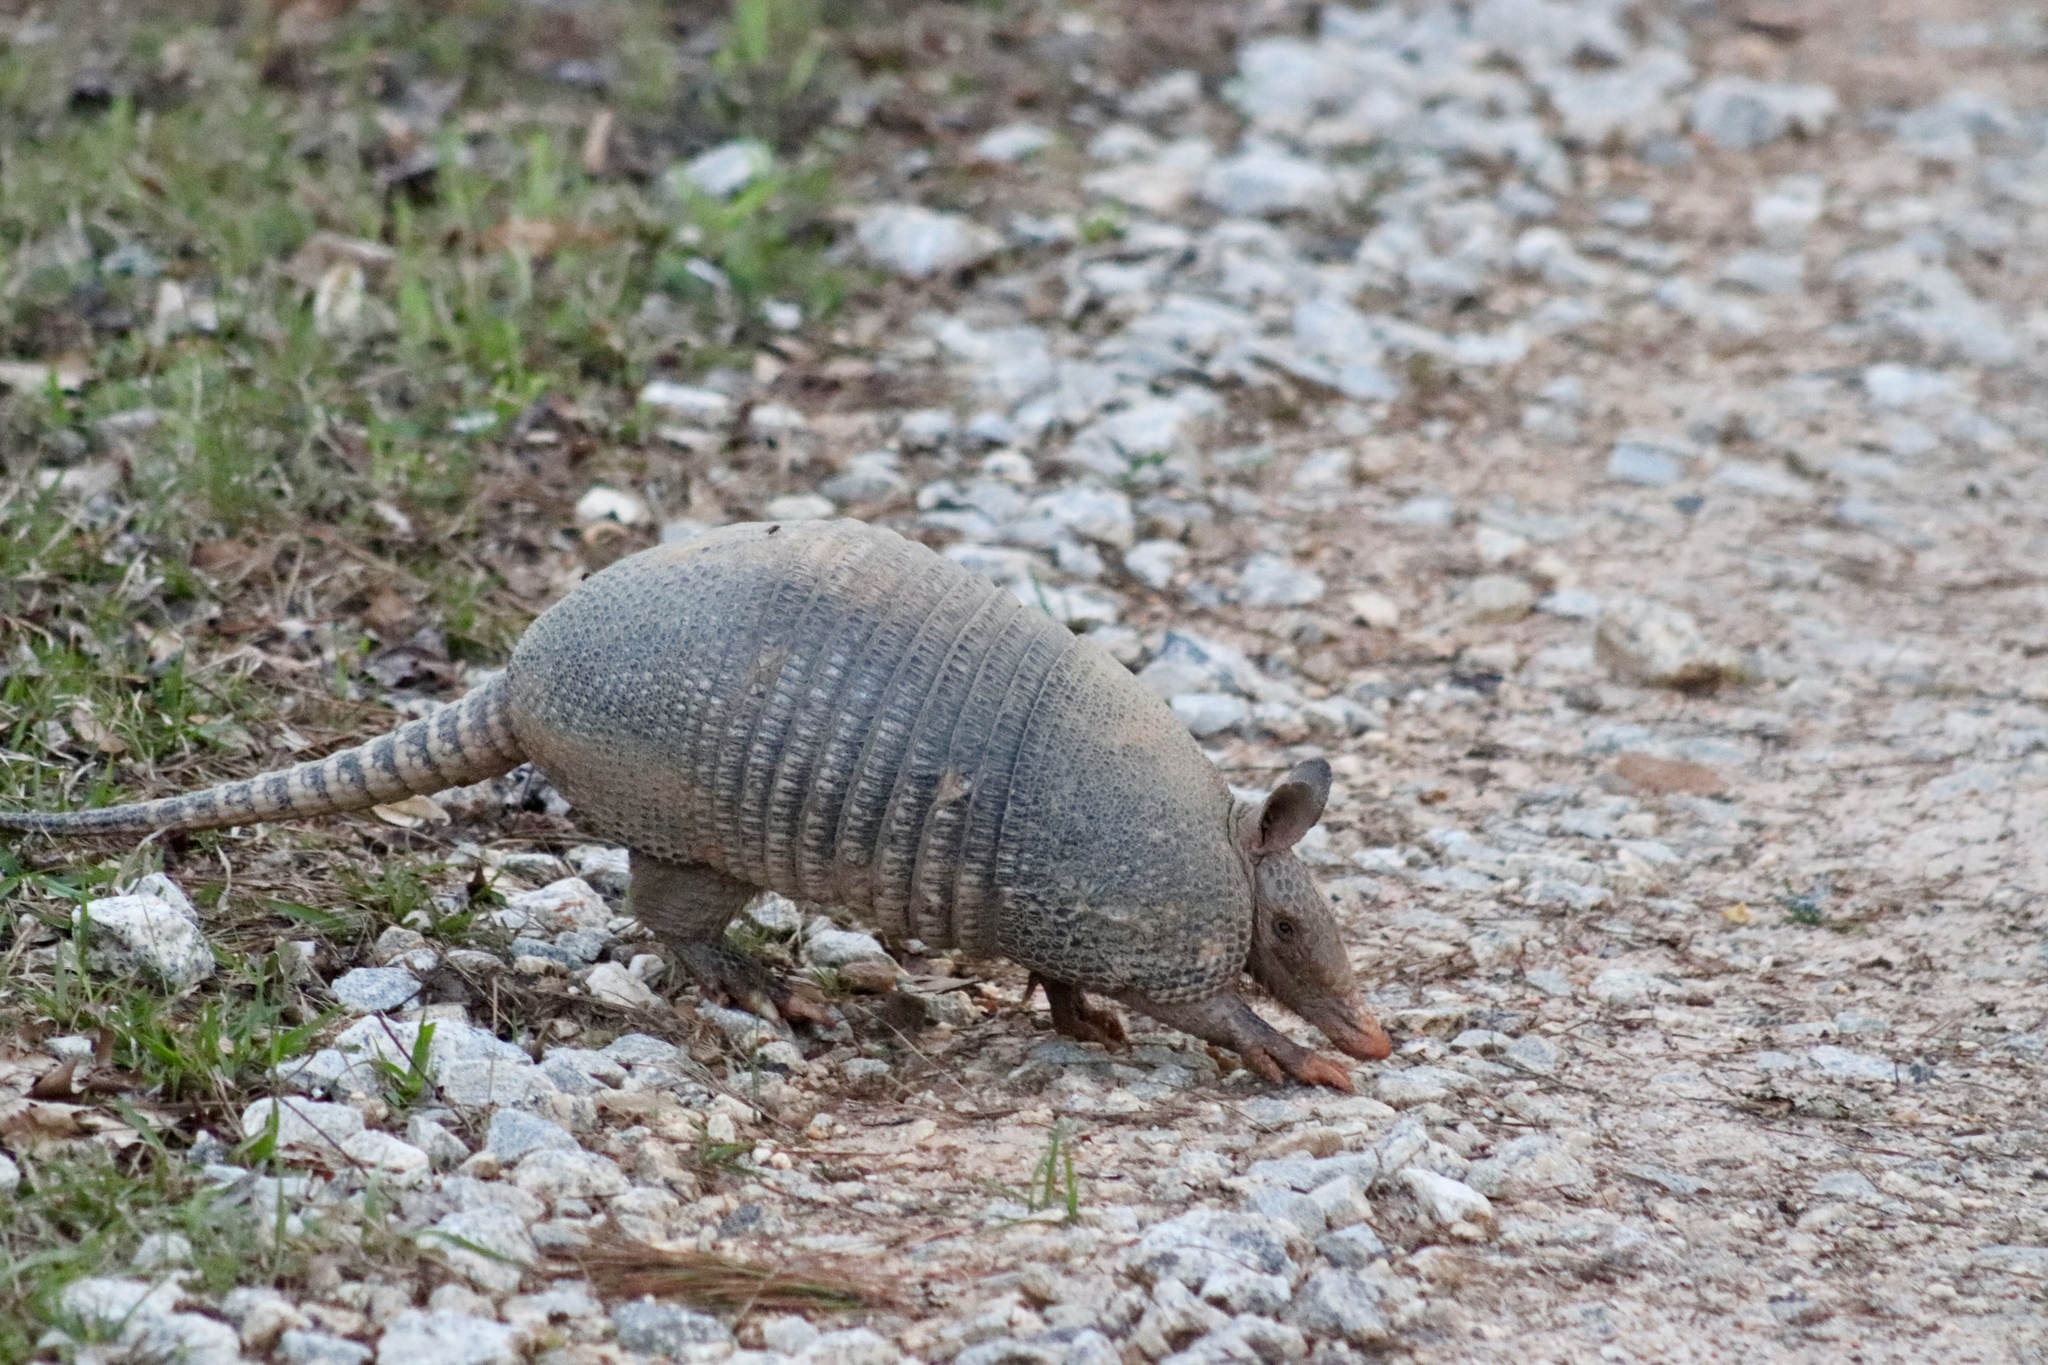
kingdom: Animalia
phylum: Chordata
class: Mammalia
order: Cingulata
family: Dasypodidae
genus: Dasypus
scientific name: Dasypus novemcinctus
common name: Nine-banded armadillo
